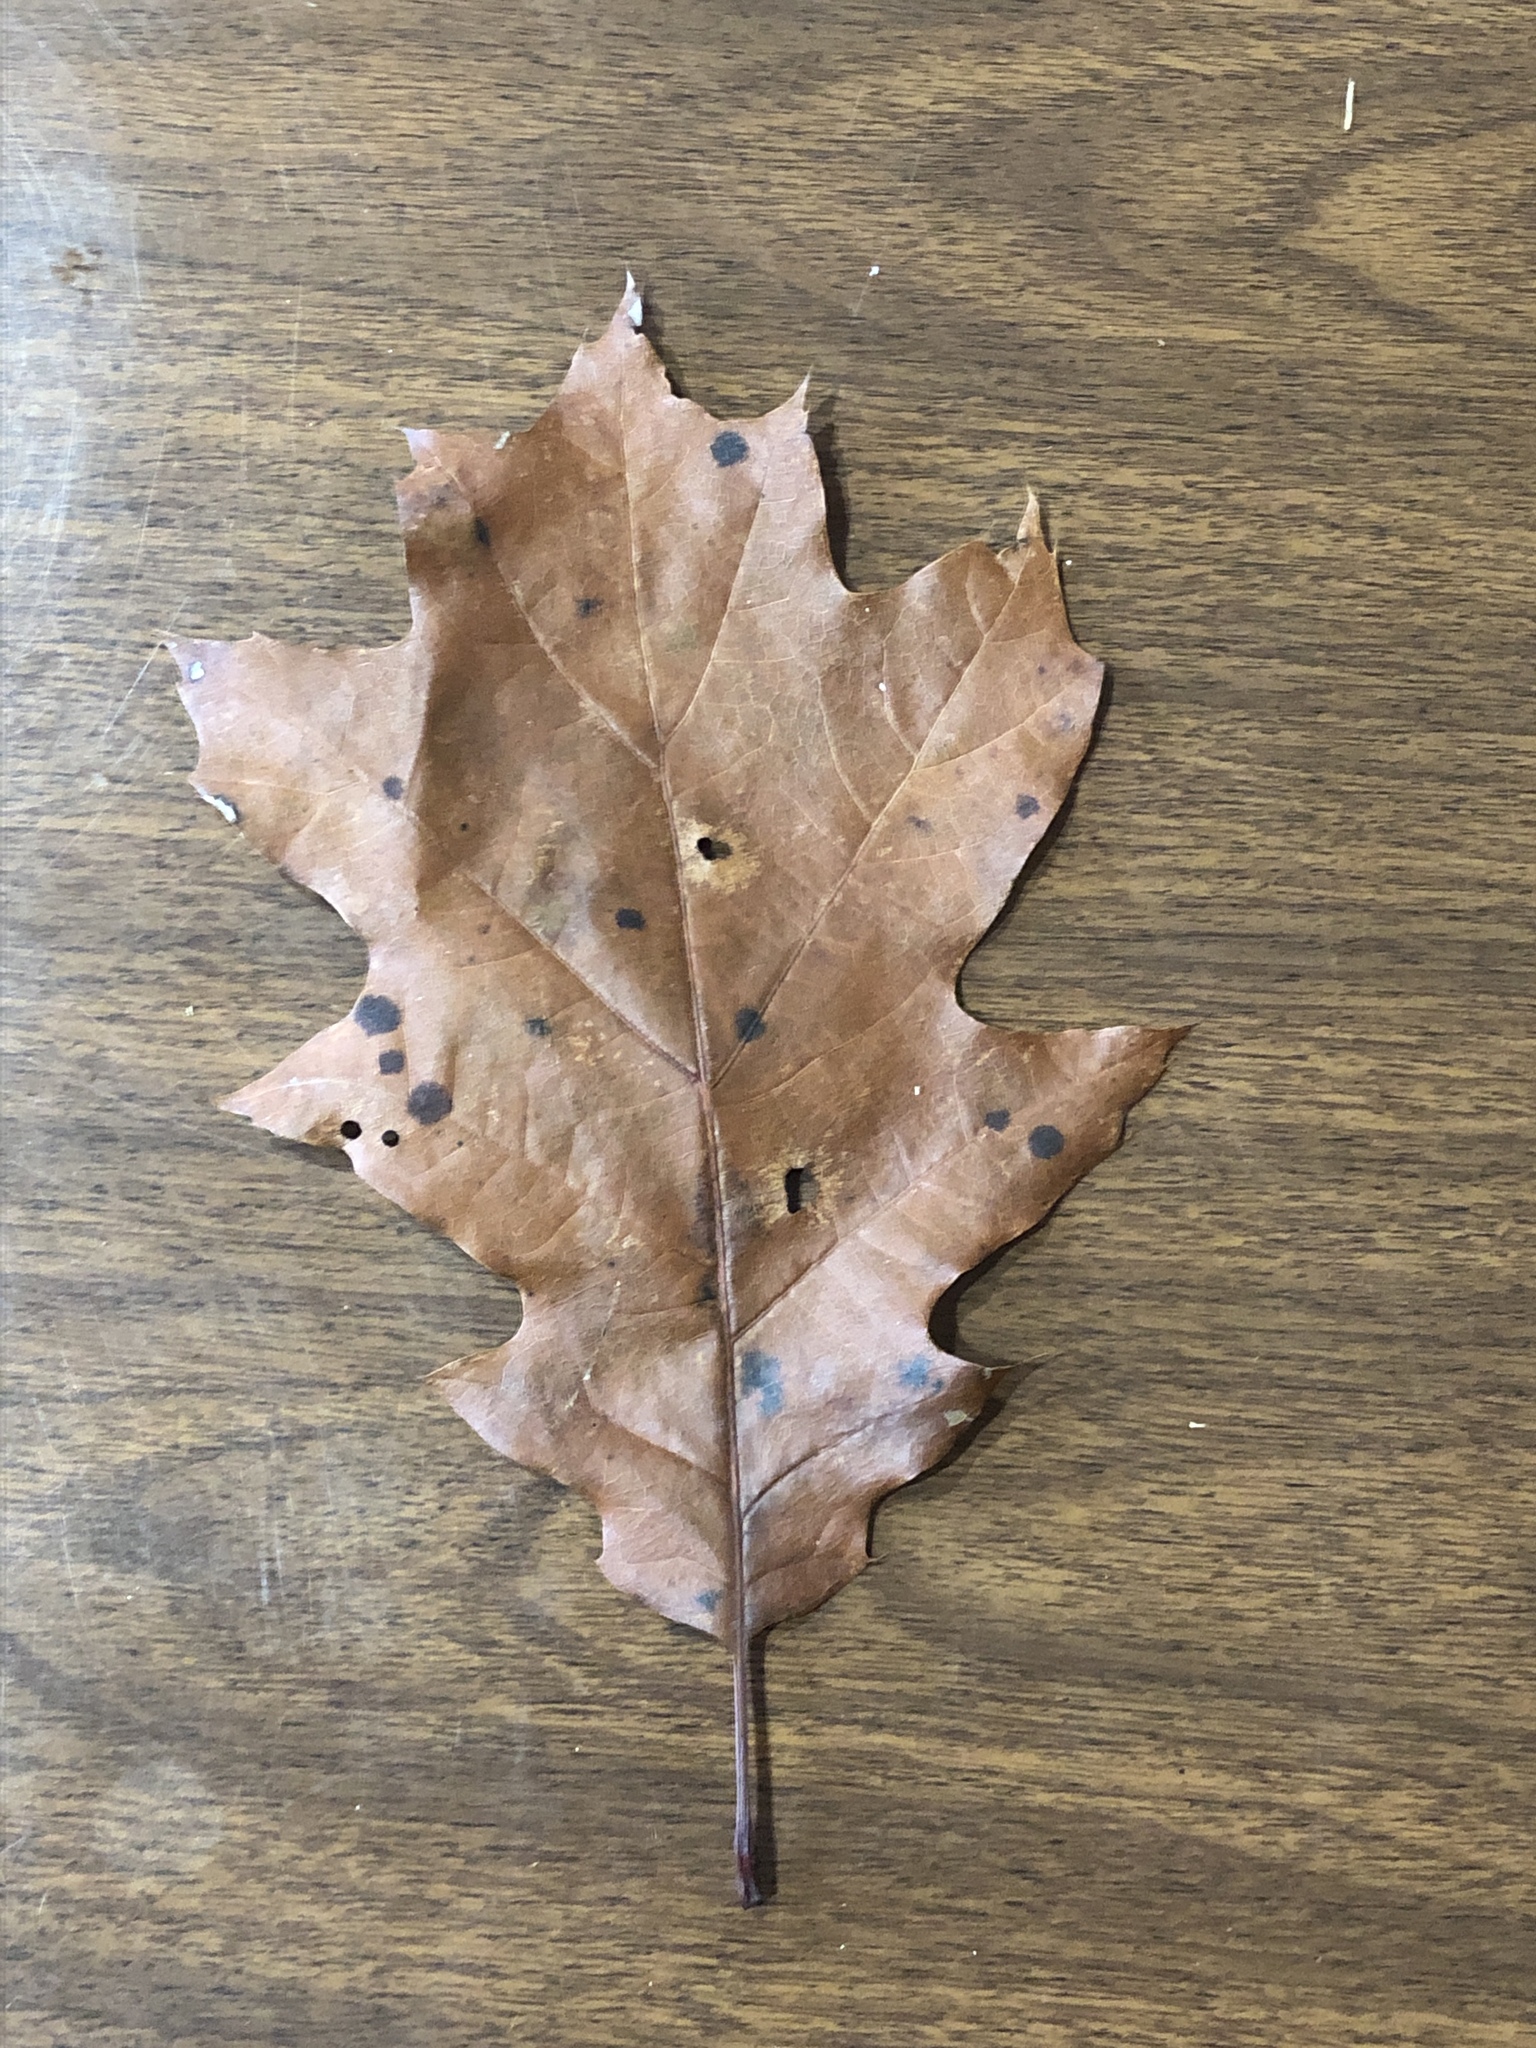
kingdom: Plantae
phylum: Tracheophyta
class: Magnoliopsida
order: Fagales
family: Fagaceae
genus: Quercus
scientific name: Quercus rubra
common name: Red oak
